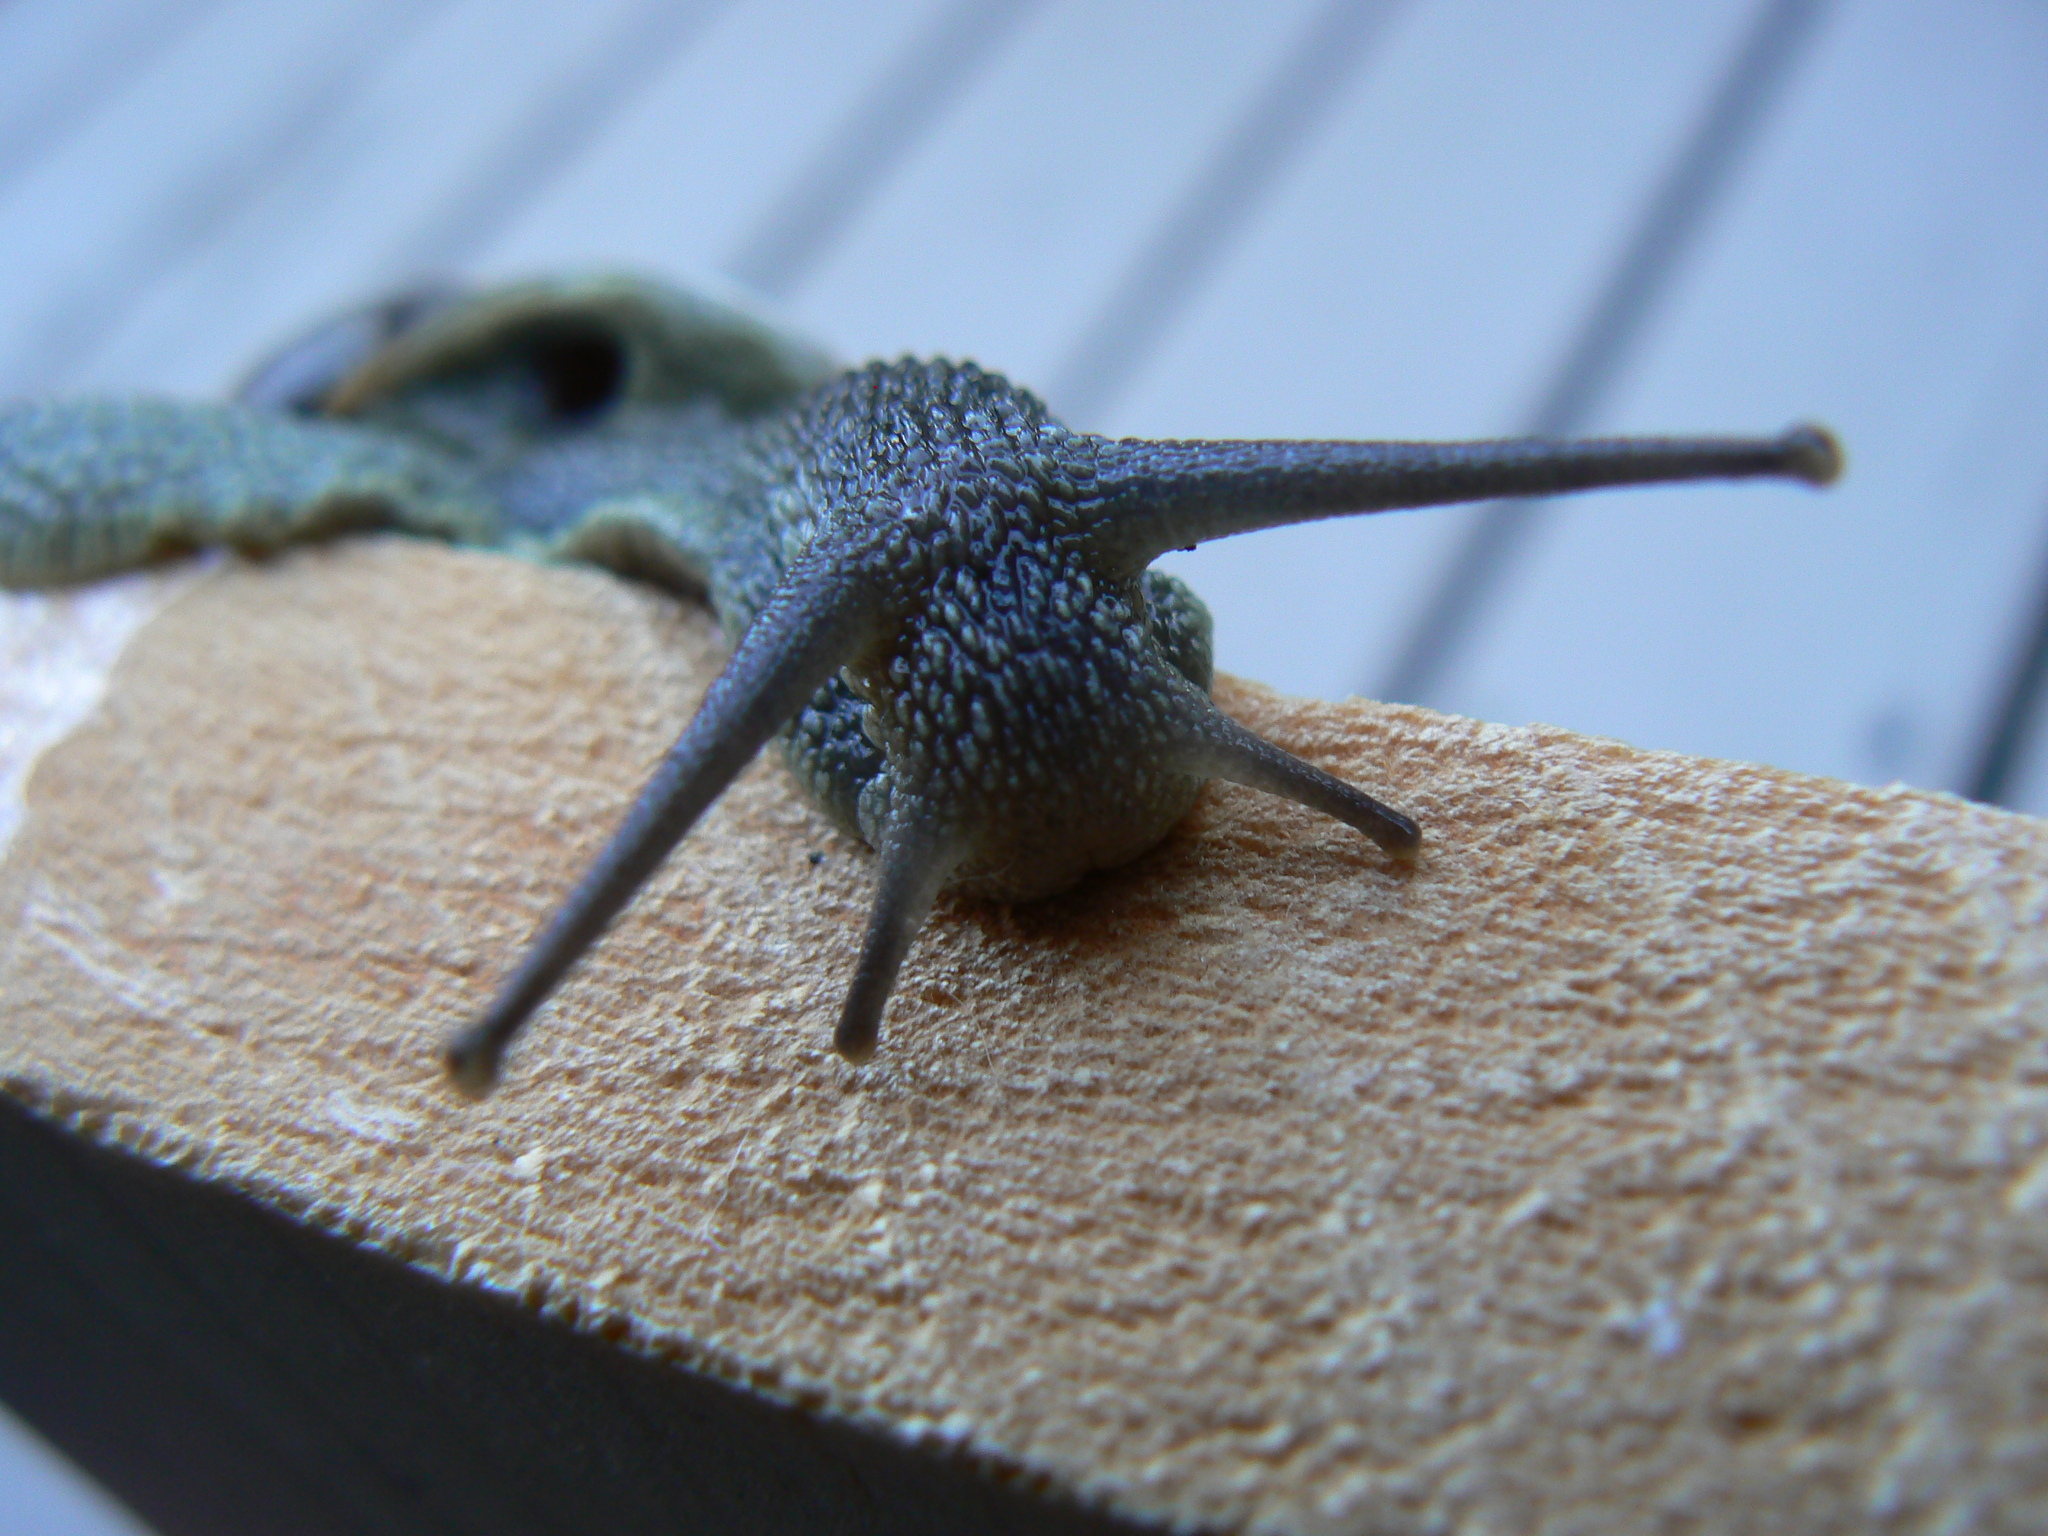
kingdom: Animalia
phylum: Mollusca
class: Gastropoda
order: Stylommatophora
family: Helicidae
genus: Cornu
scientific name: Cornu aspersum
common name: Brown garden snail
